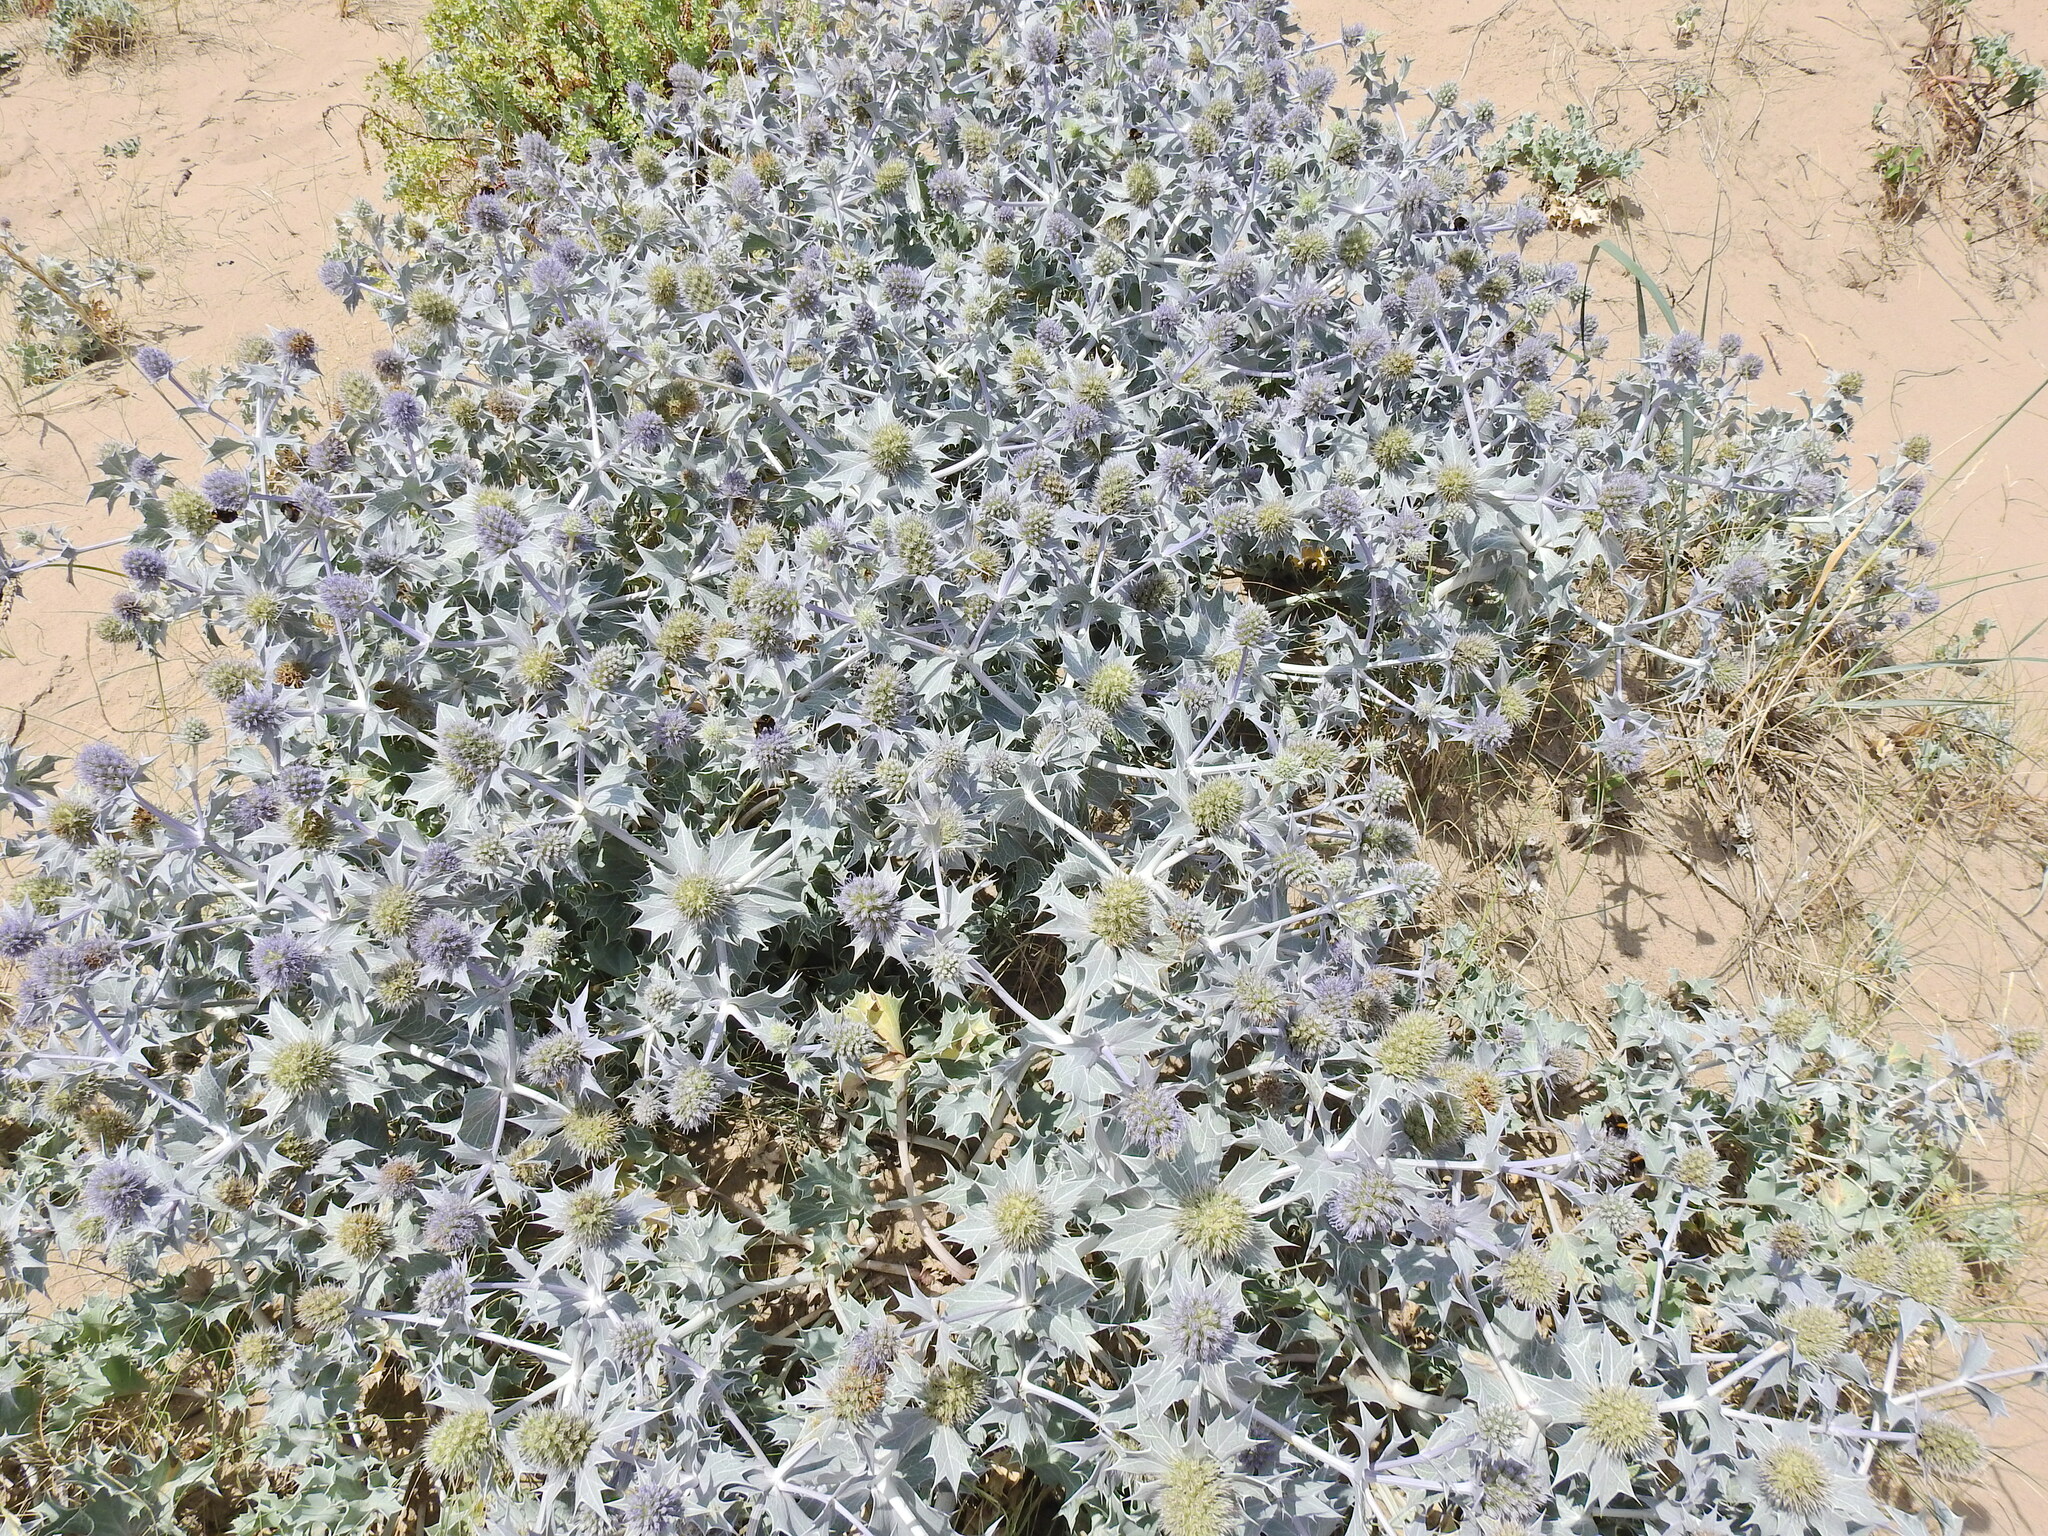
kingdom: Plantae
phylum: Tracheophyta
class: Magnoliopsida
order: Apiales
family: Apiaceae
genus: Eryngium
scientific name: Eryngium maritimum
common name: Sea-holly
